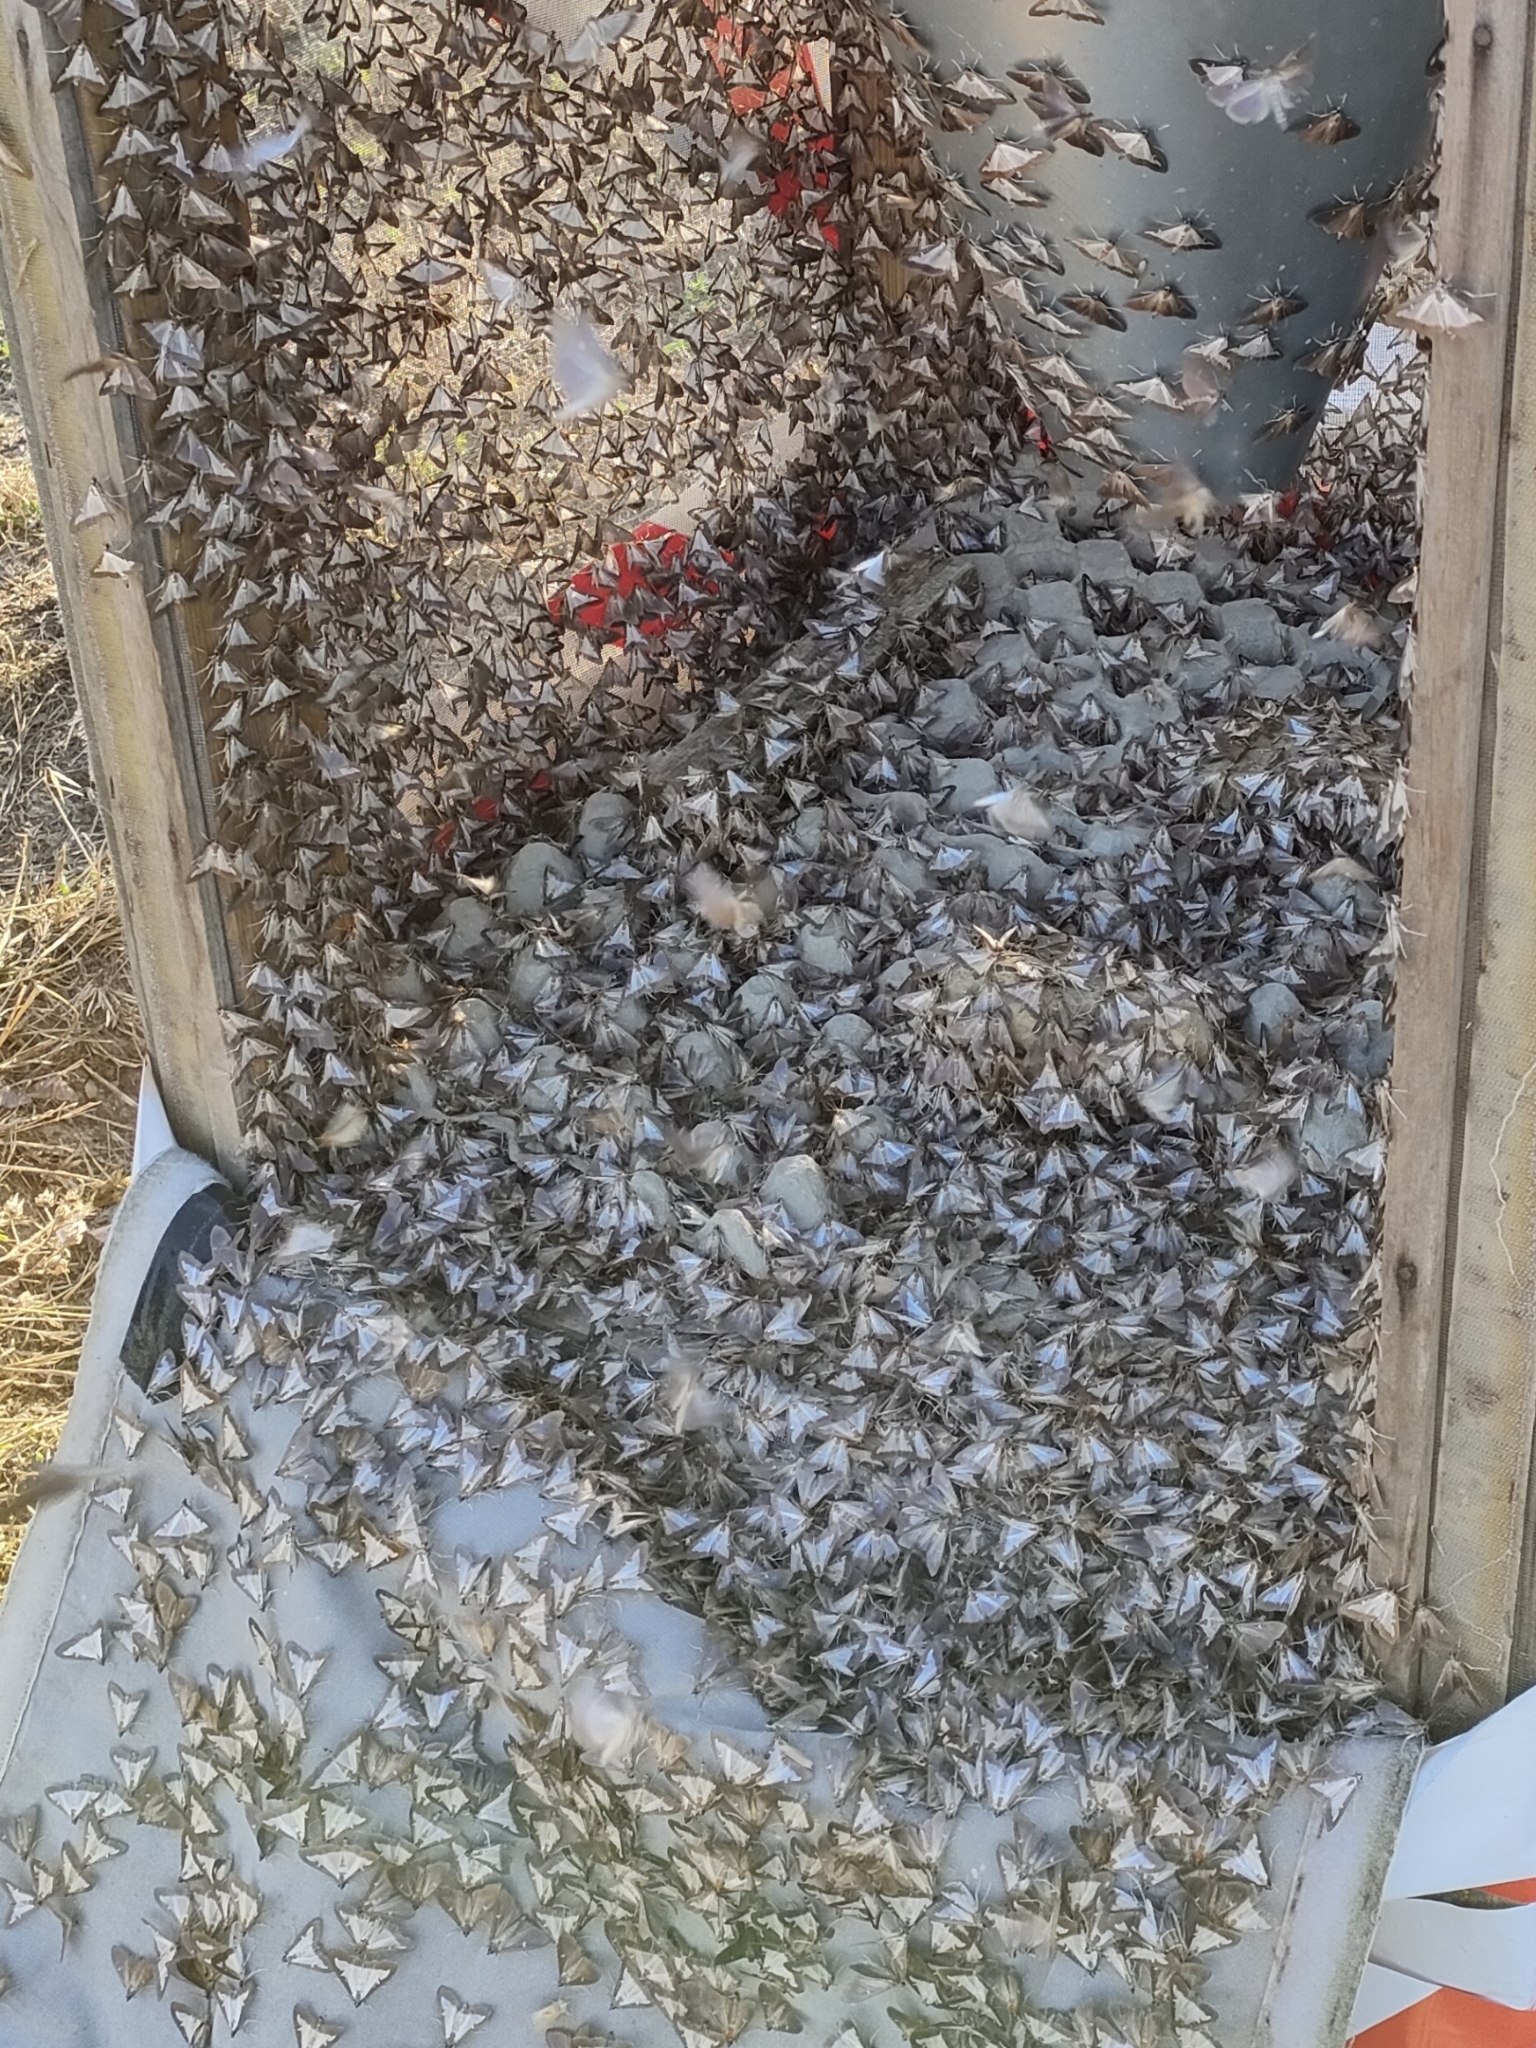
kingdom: Animalia
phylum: Arthropoda
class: Insecta
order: Lepidoptera
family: Crambidae
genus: Cydalima
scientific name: Cydalima perspectalis
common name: Box tree moth
